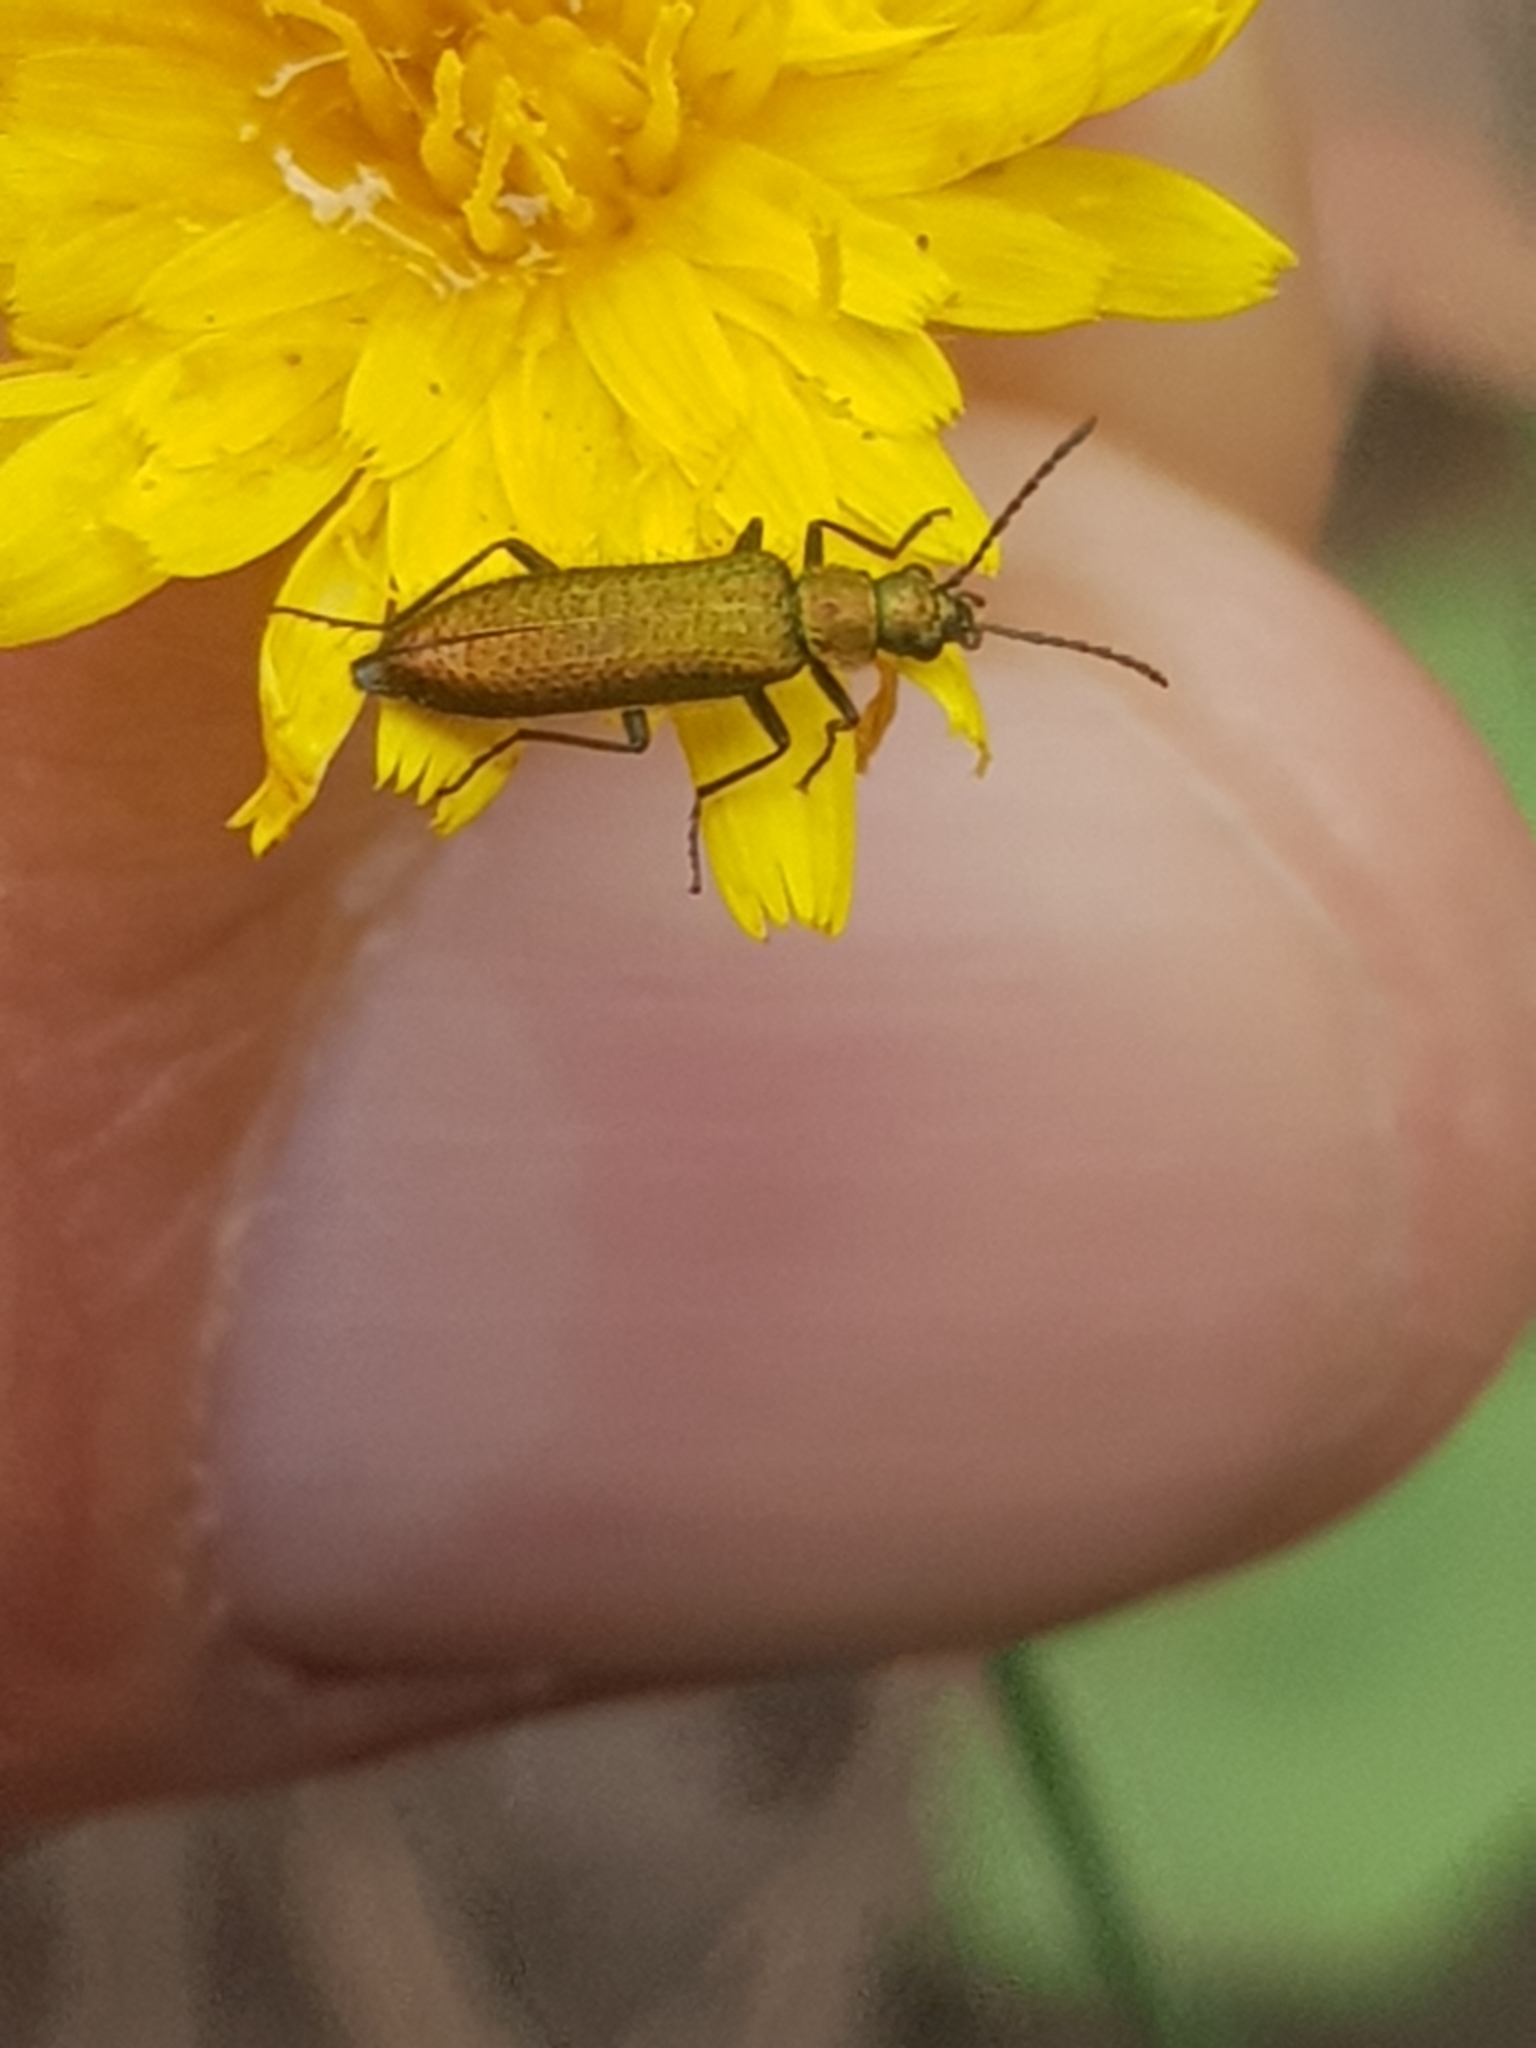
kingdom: Animalia
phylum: Arthropoda
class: Insecta
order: Coleoptera
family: Stenotrachelidae
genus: Stenotrachelus
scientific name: Stenotrachelus aeneus
